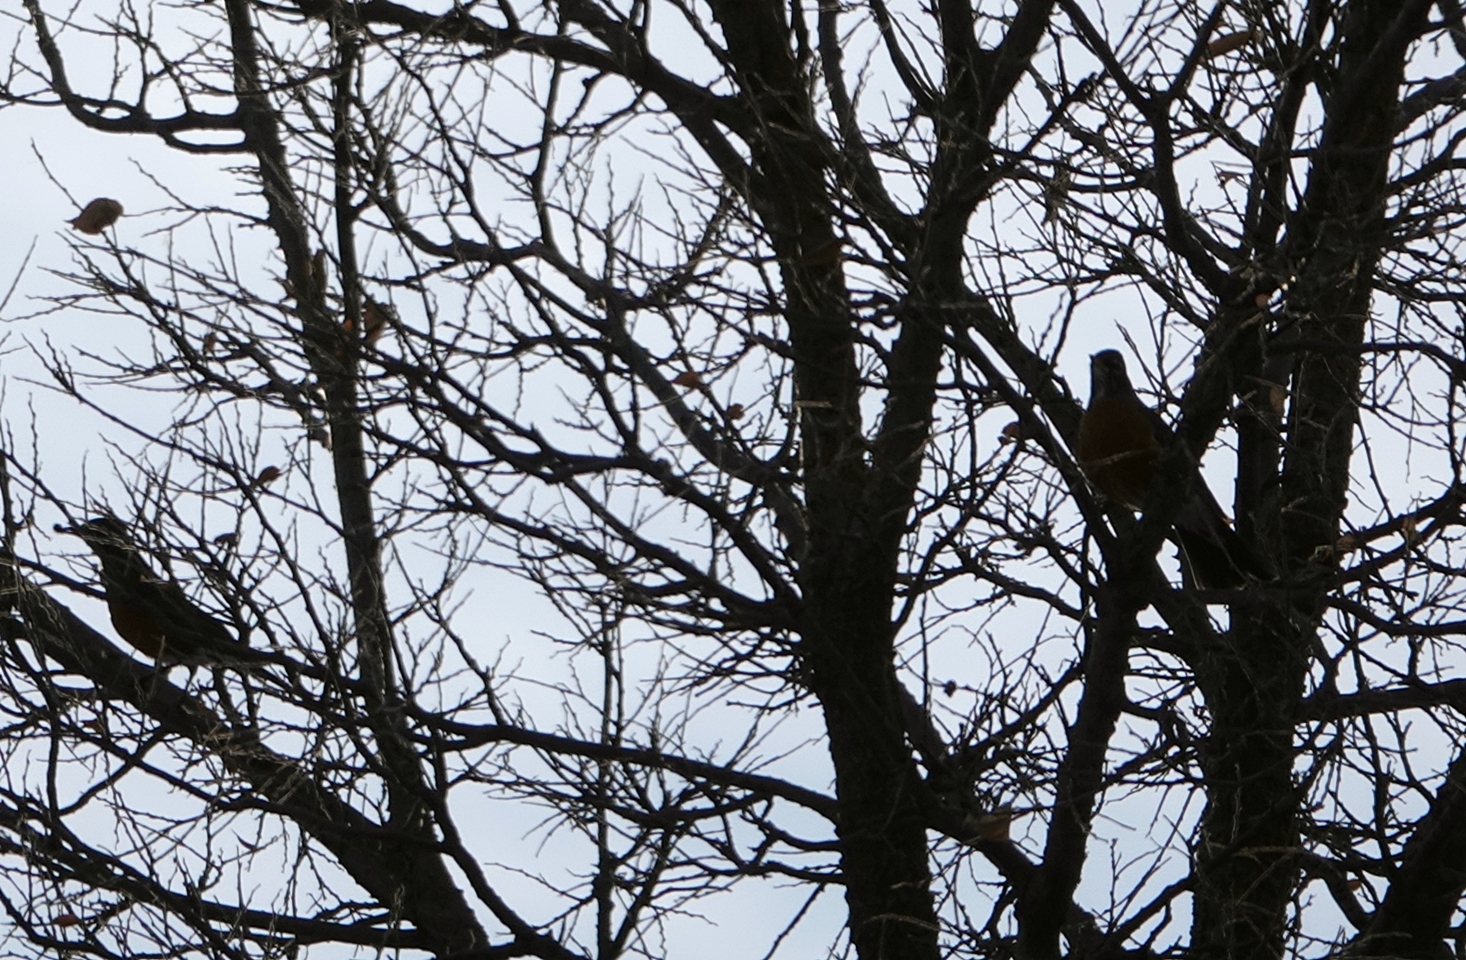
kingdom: Animalia
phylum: Chordata
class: Aves
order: Passeriformes
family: Turdidae
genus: Turdus
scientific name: Turdus migratorius
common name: American robin
